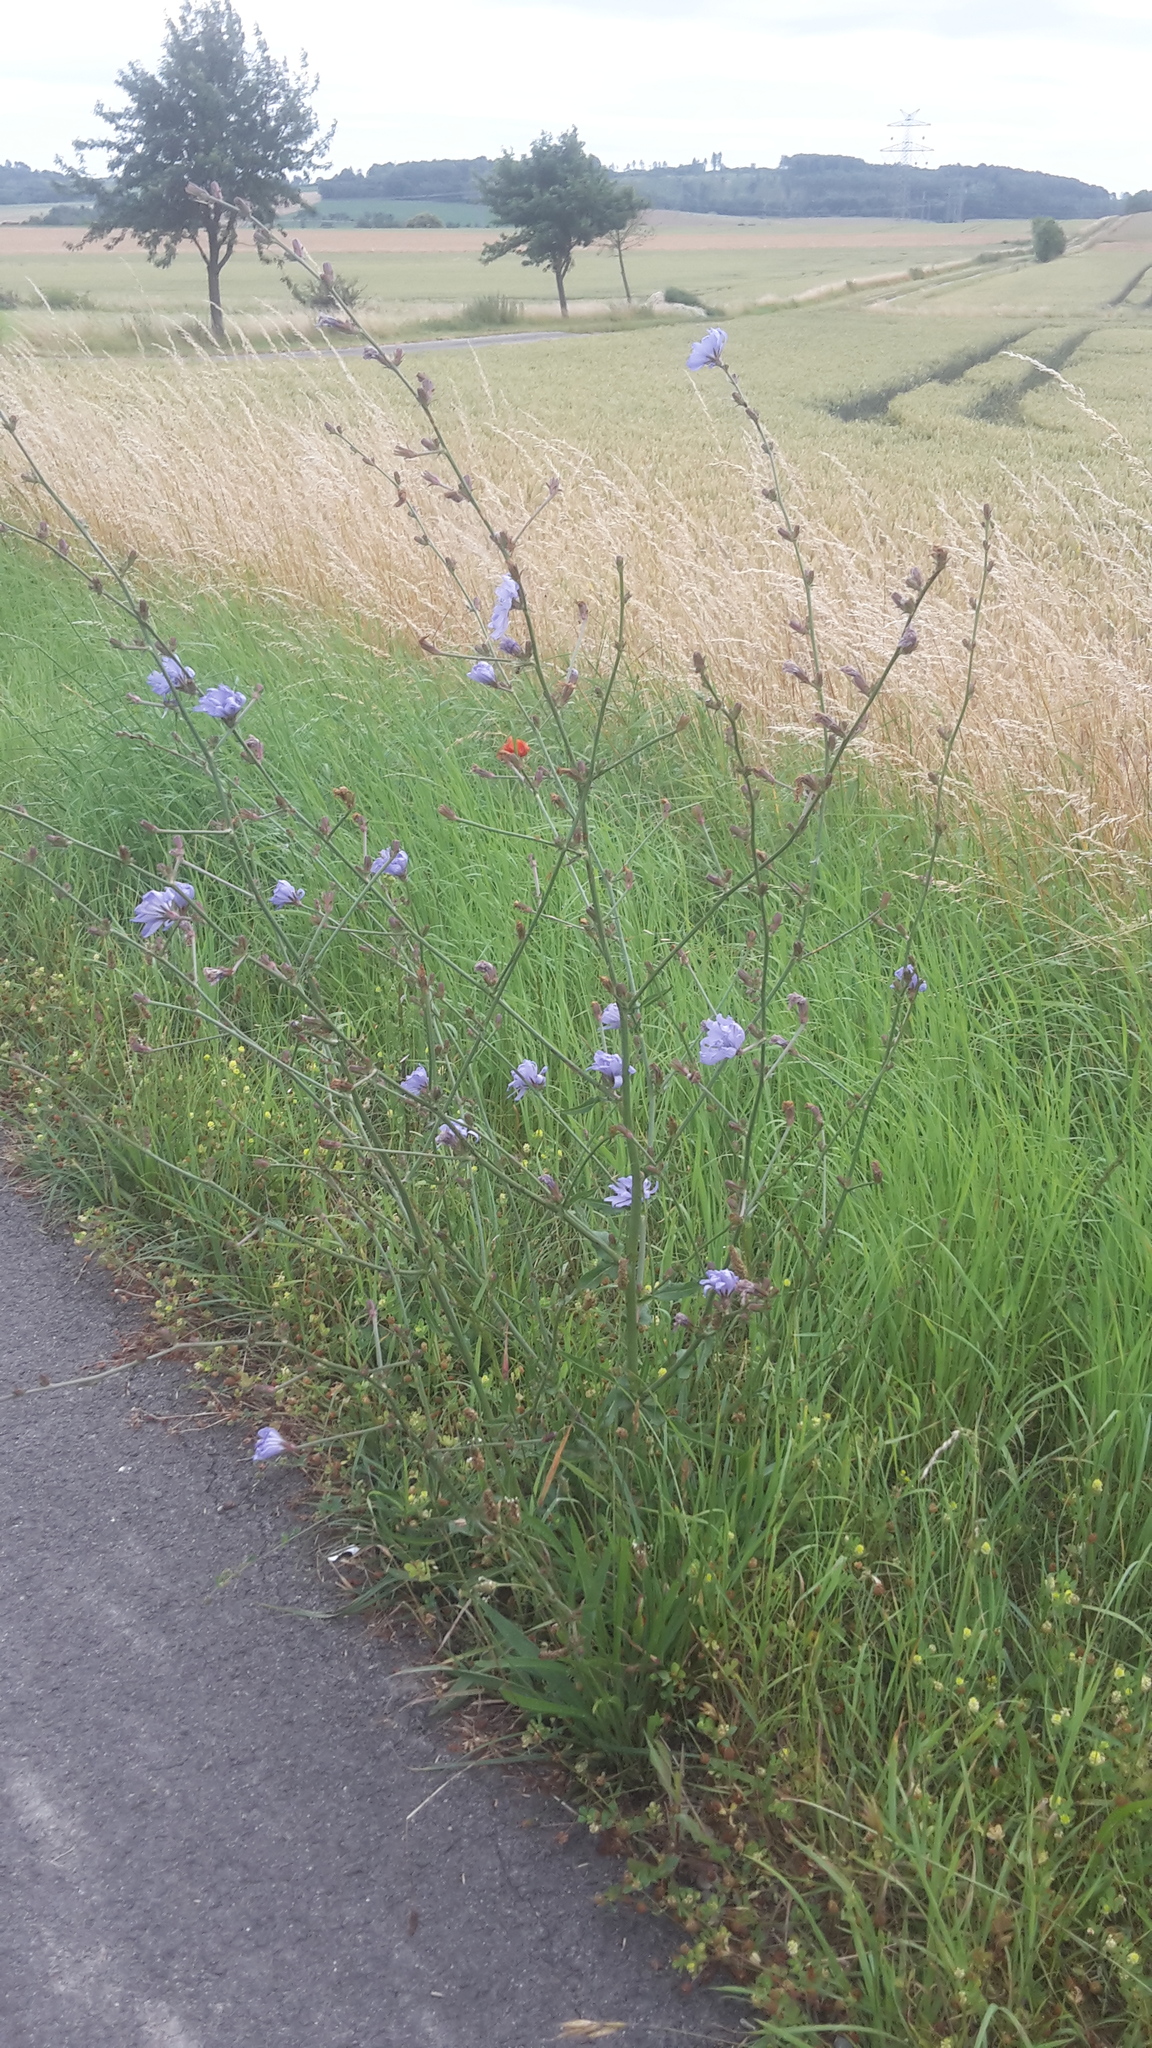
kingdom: Plantae
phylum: Tracheophyta
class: Magnoliopsida
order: Asterales
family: Asteraceae
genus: Cichorium
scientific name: Cichorium intybus
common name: Chicory
